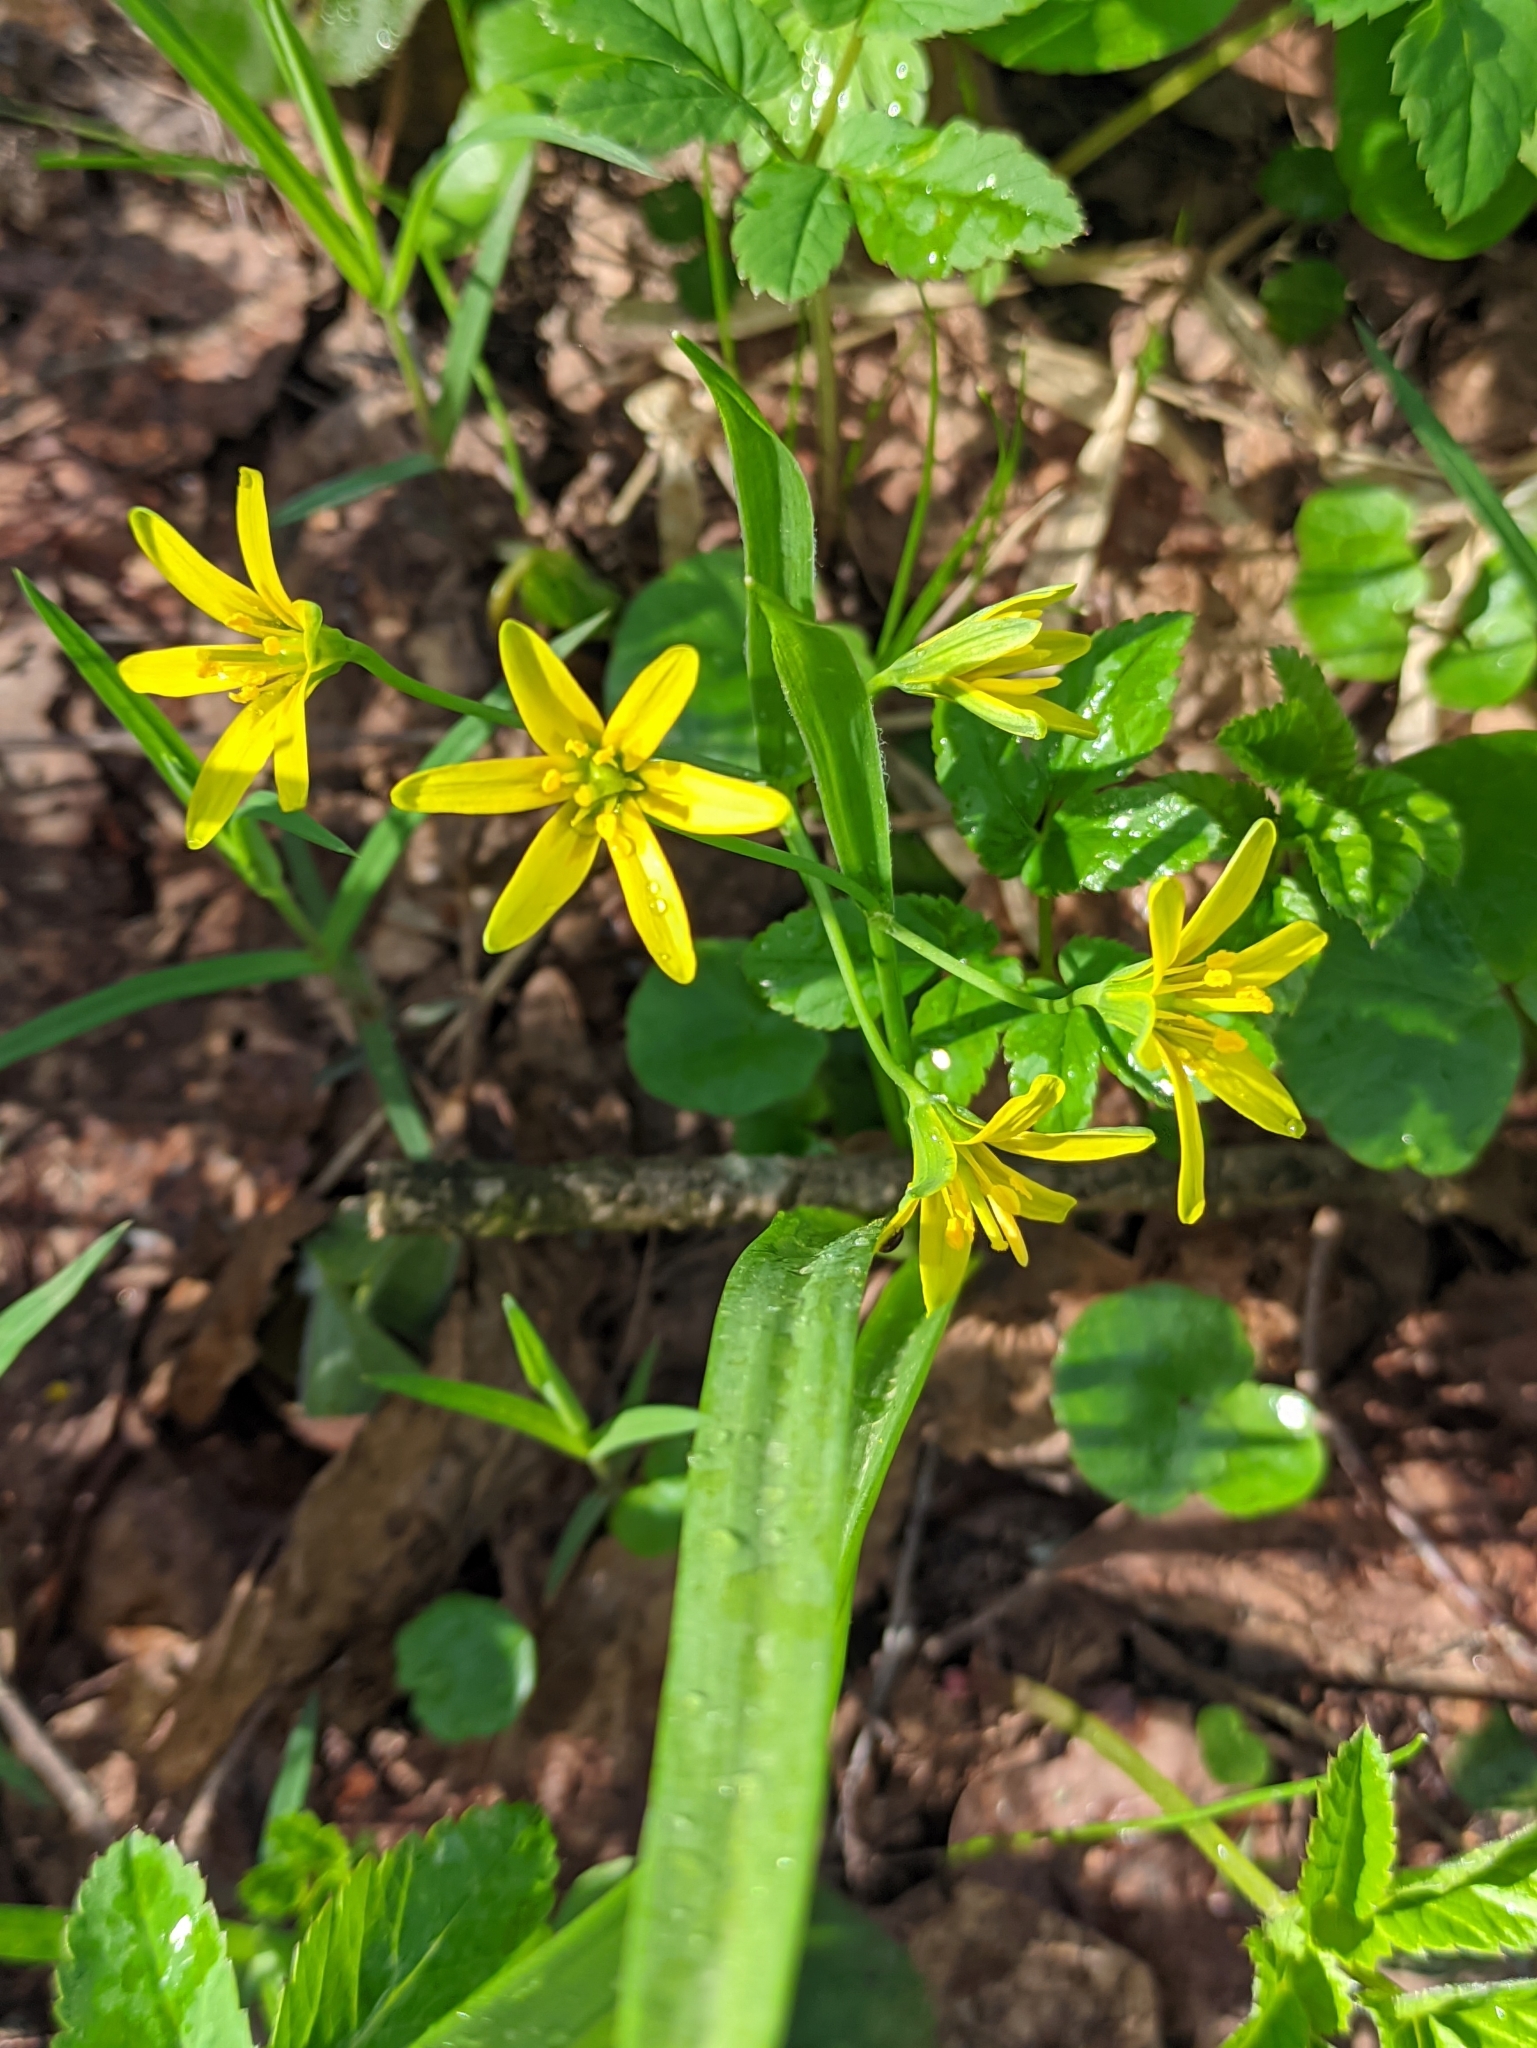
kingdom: Plantae
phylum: Tracheophyta
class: Liliopsida
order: Liliales
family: Liliaceae
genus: Gagea
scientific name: Gagea lutea
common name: Yellow star-of-bethlehem
